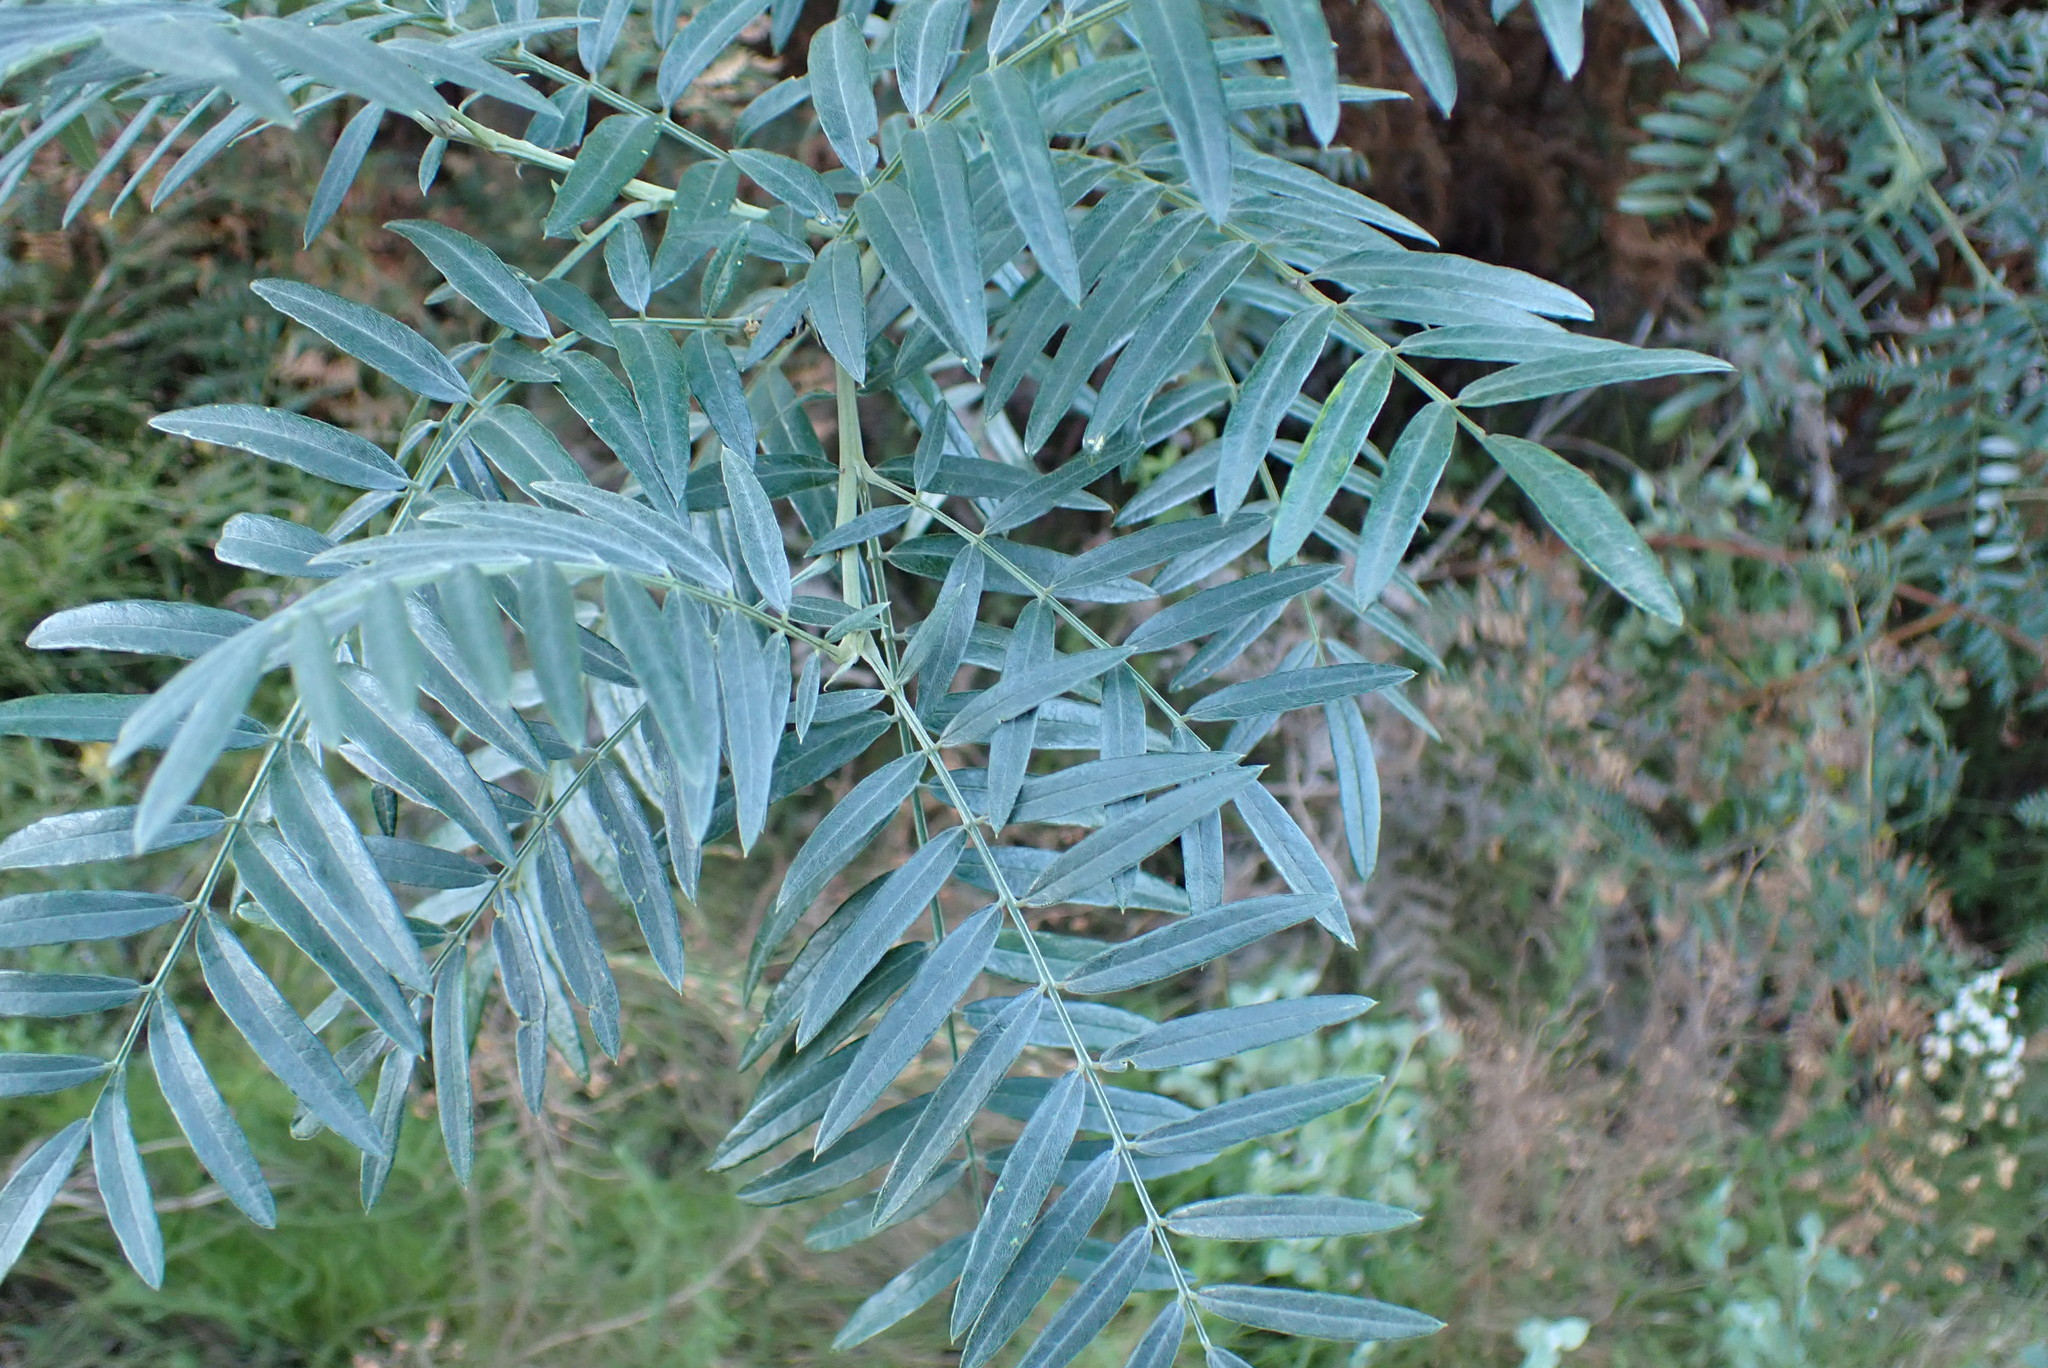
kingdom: Plantae
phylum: Tracheophyta
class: Magnoliopsida
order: Fabales
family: Fabaceae
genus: Virgilia
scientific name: Virgilia oroboides
